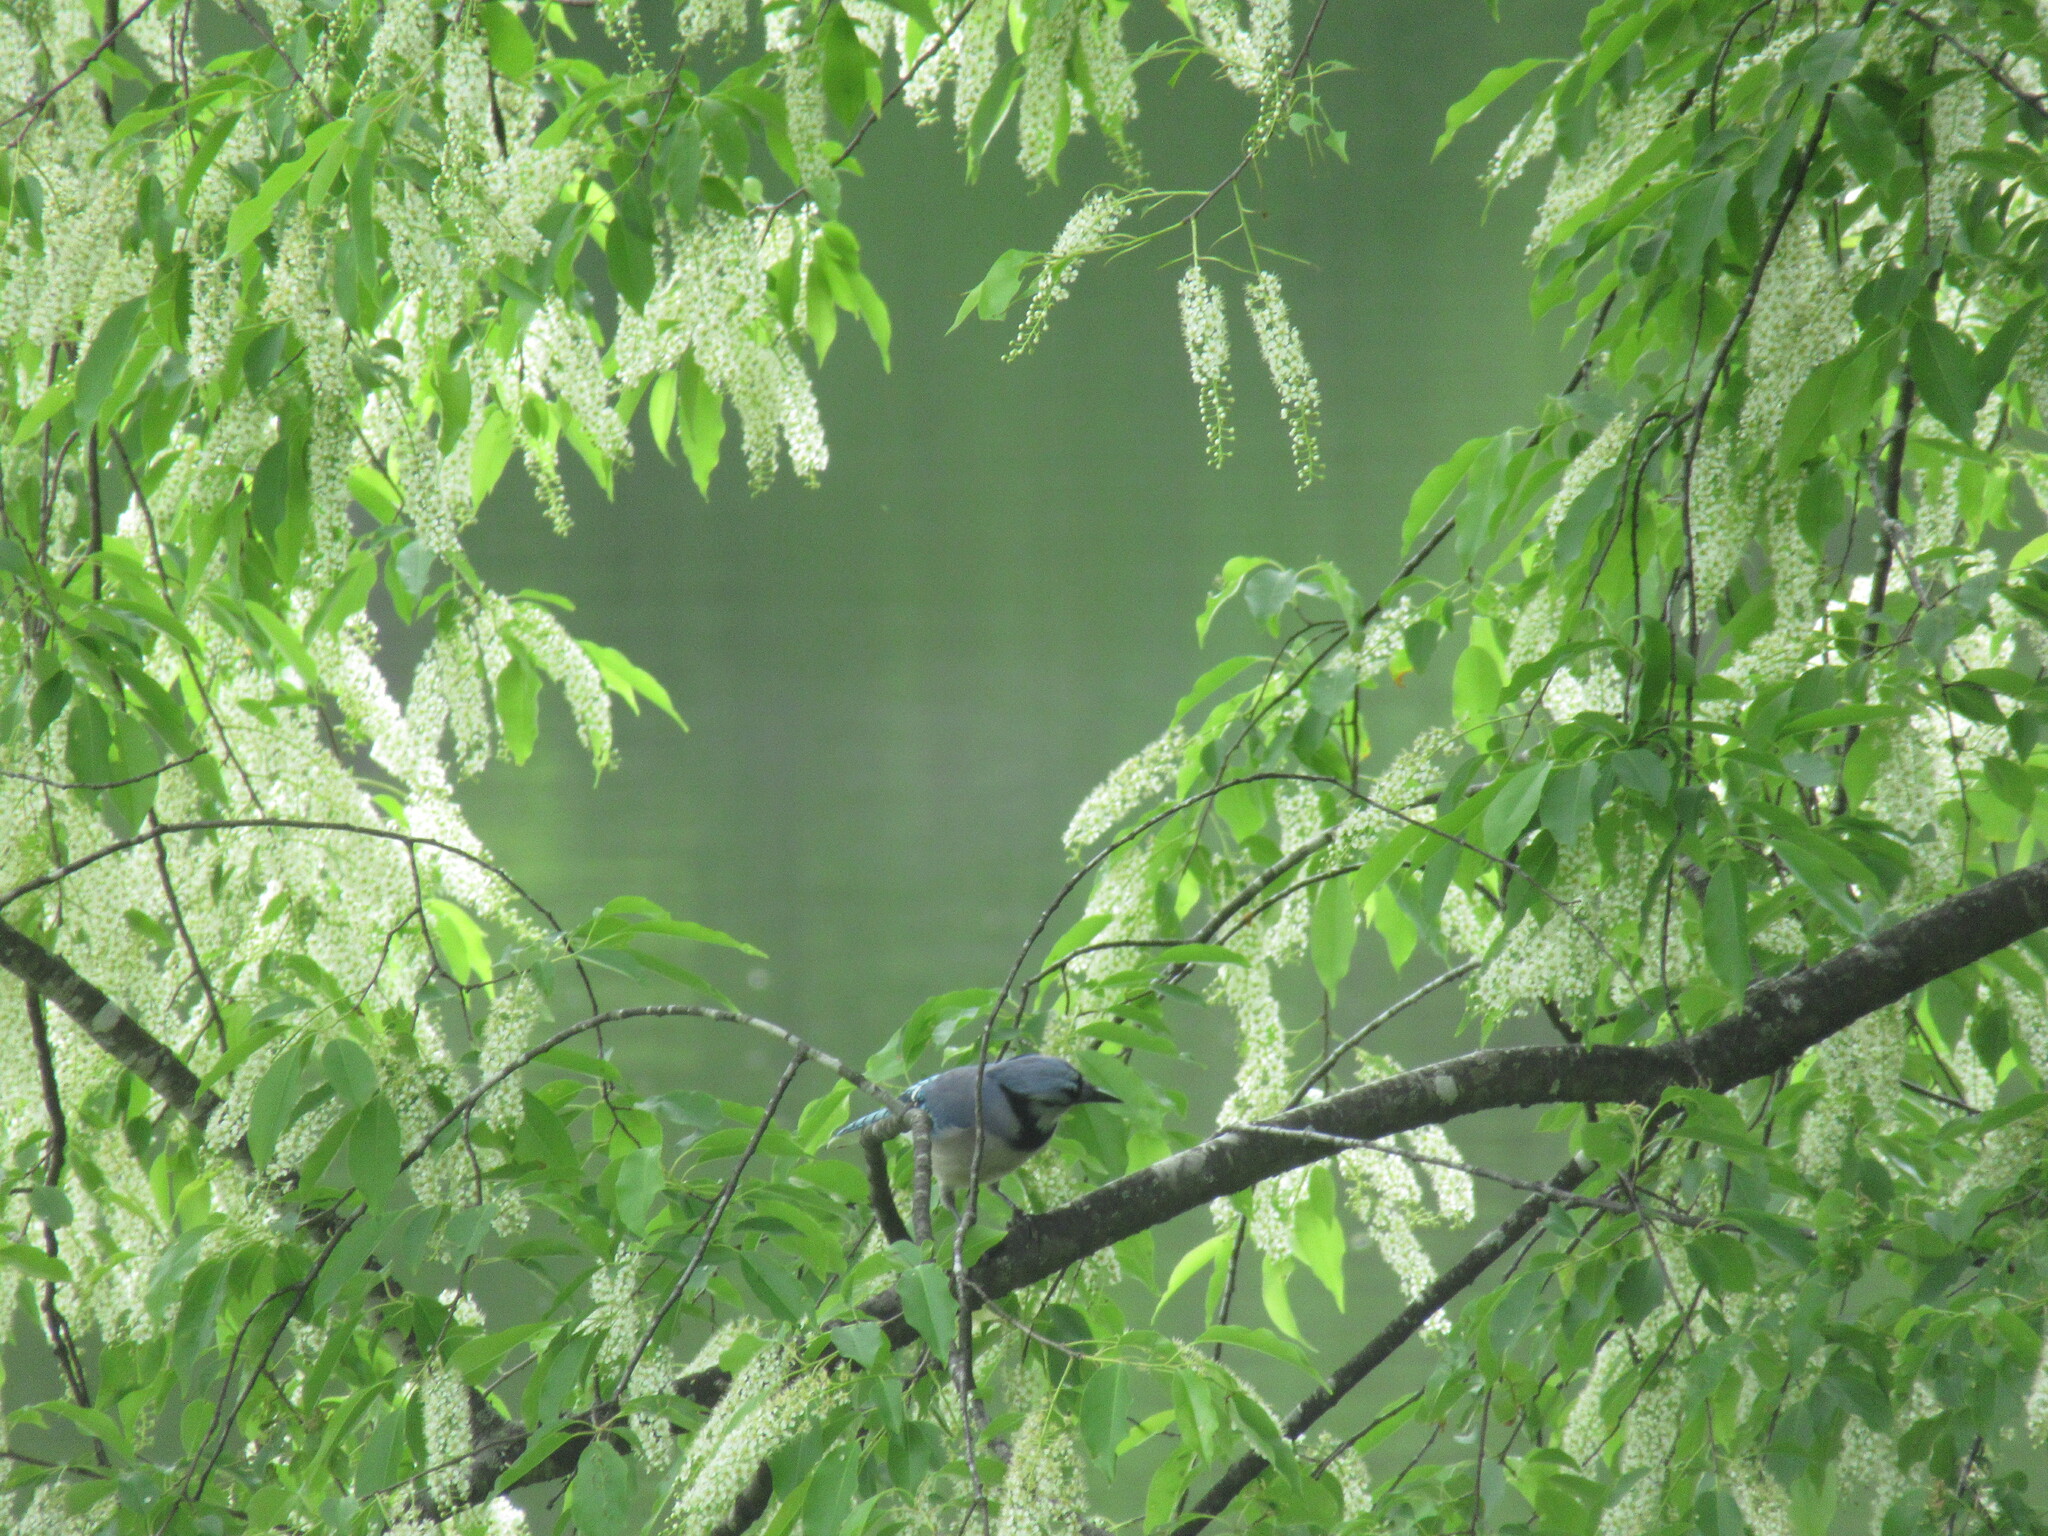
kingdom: Animalia
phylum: Chordata
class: Aves
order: Passeriformes
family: Corvidae
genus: Cyanocitta
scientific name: Cyanocitta cristata
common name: Blue jay
